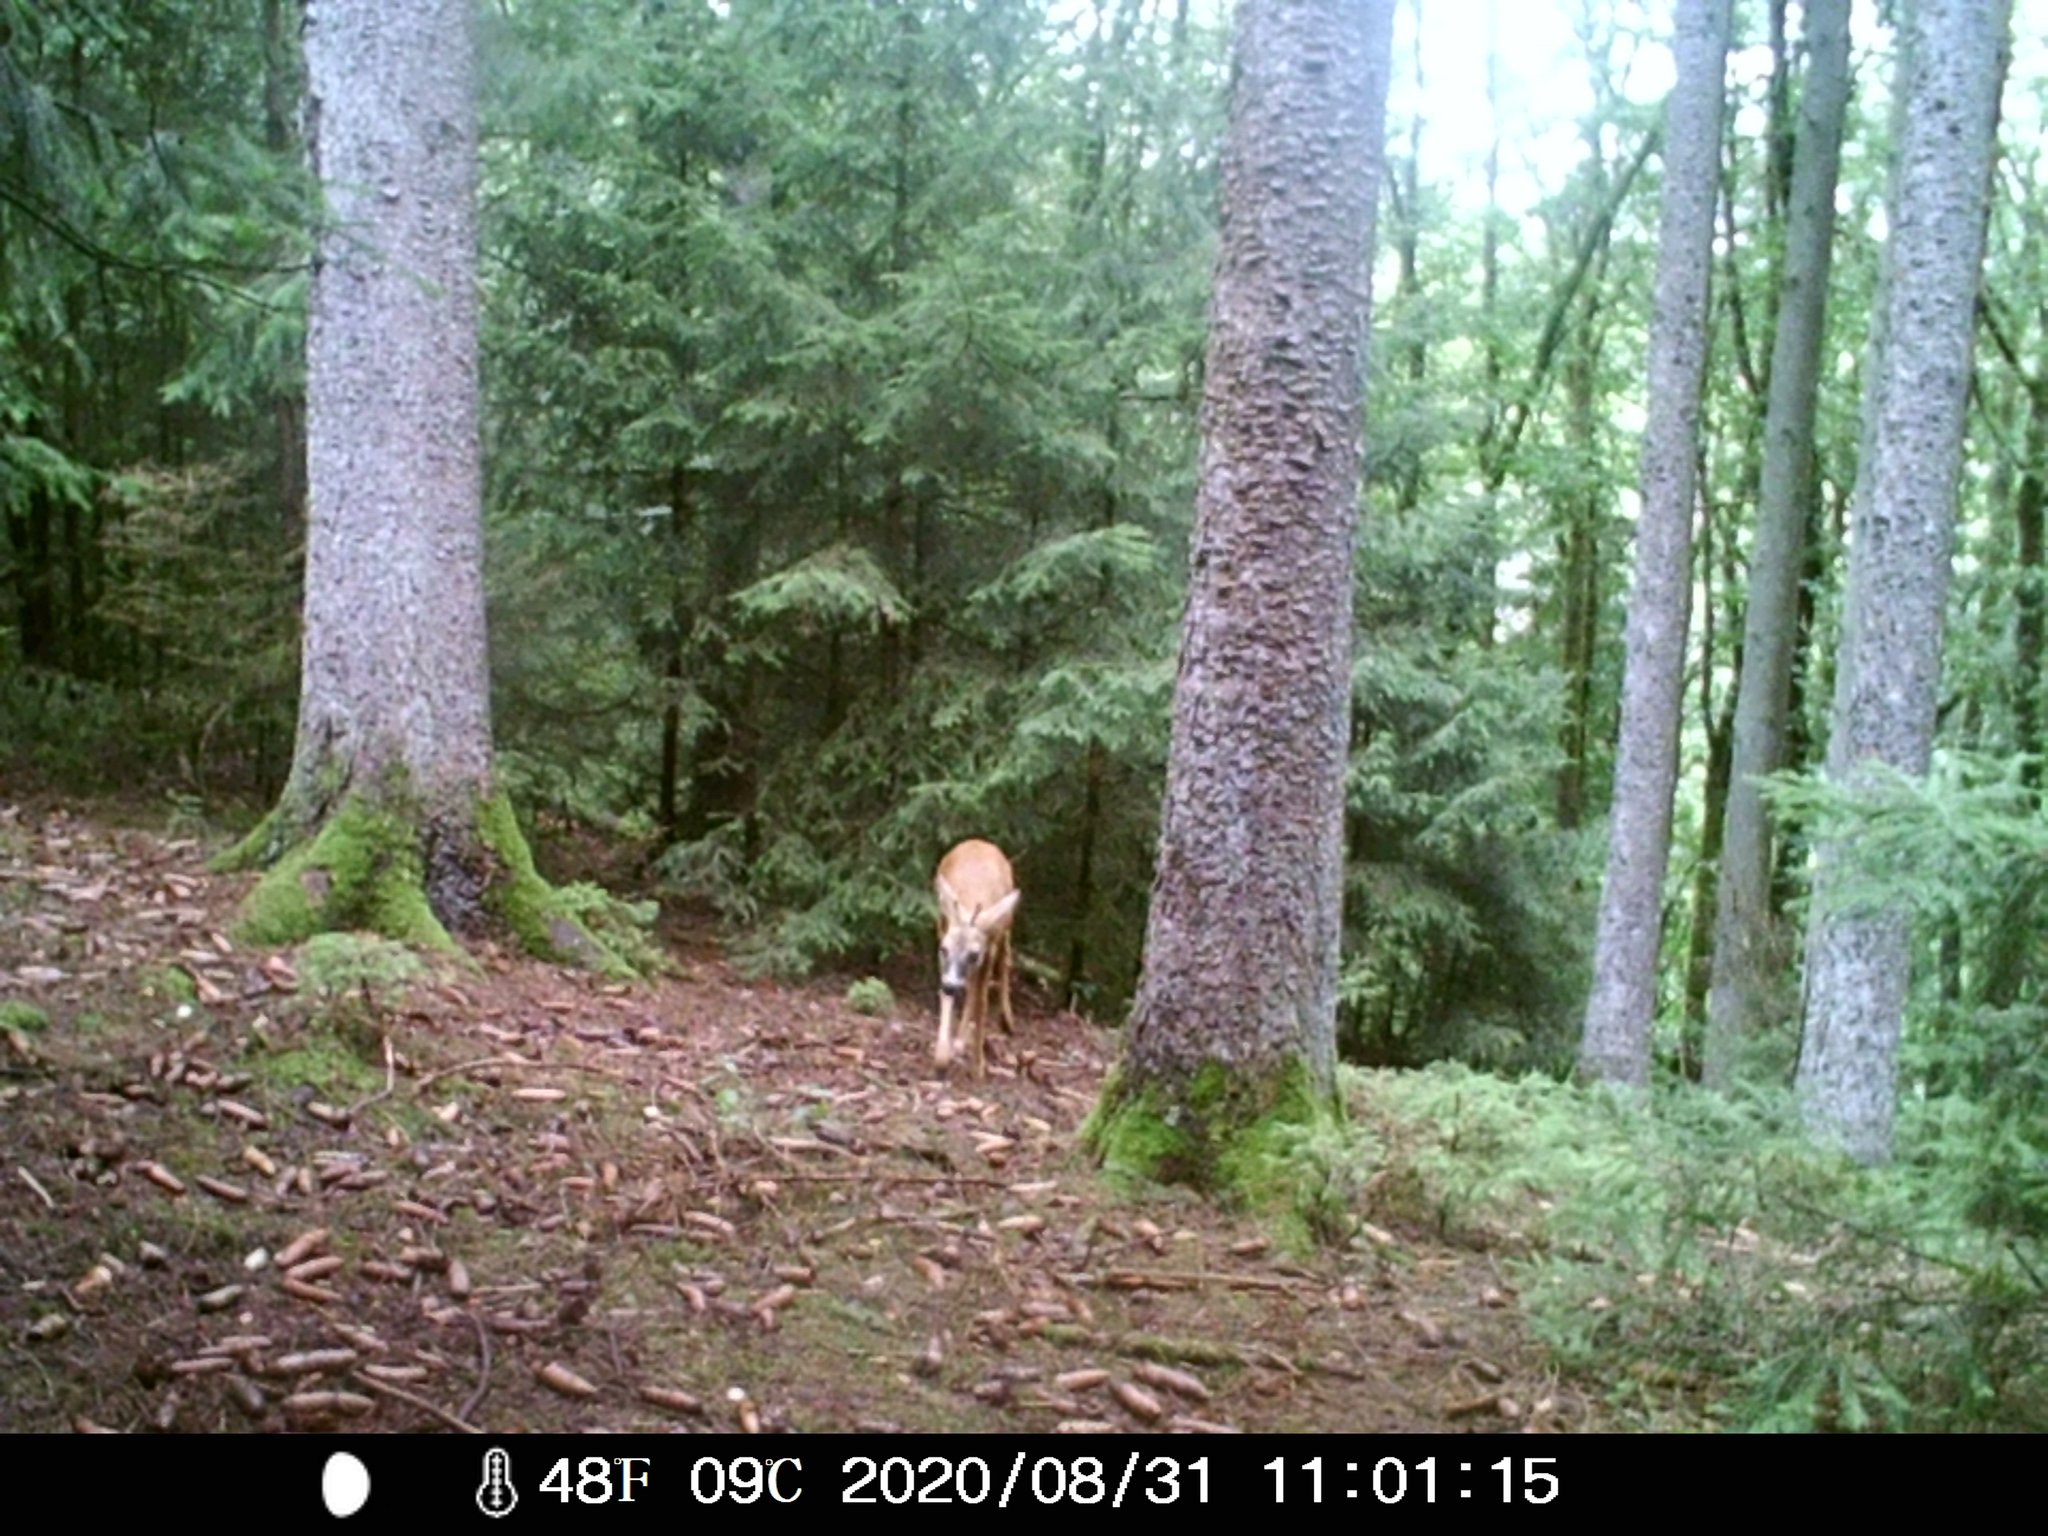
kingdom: Animalia
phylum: Chordata
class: Mammalia
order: Artiodactyla
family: Cervidae
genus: Capreolus
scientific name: Capreolus capreolus
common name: Western roe deer
